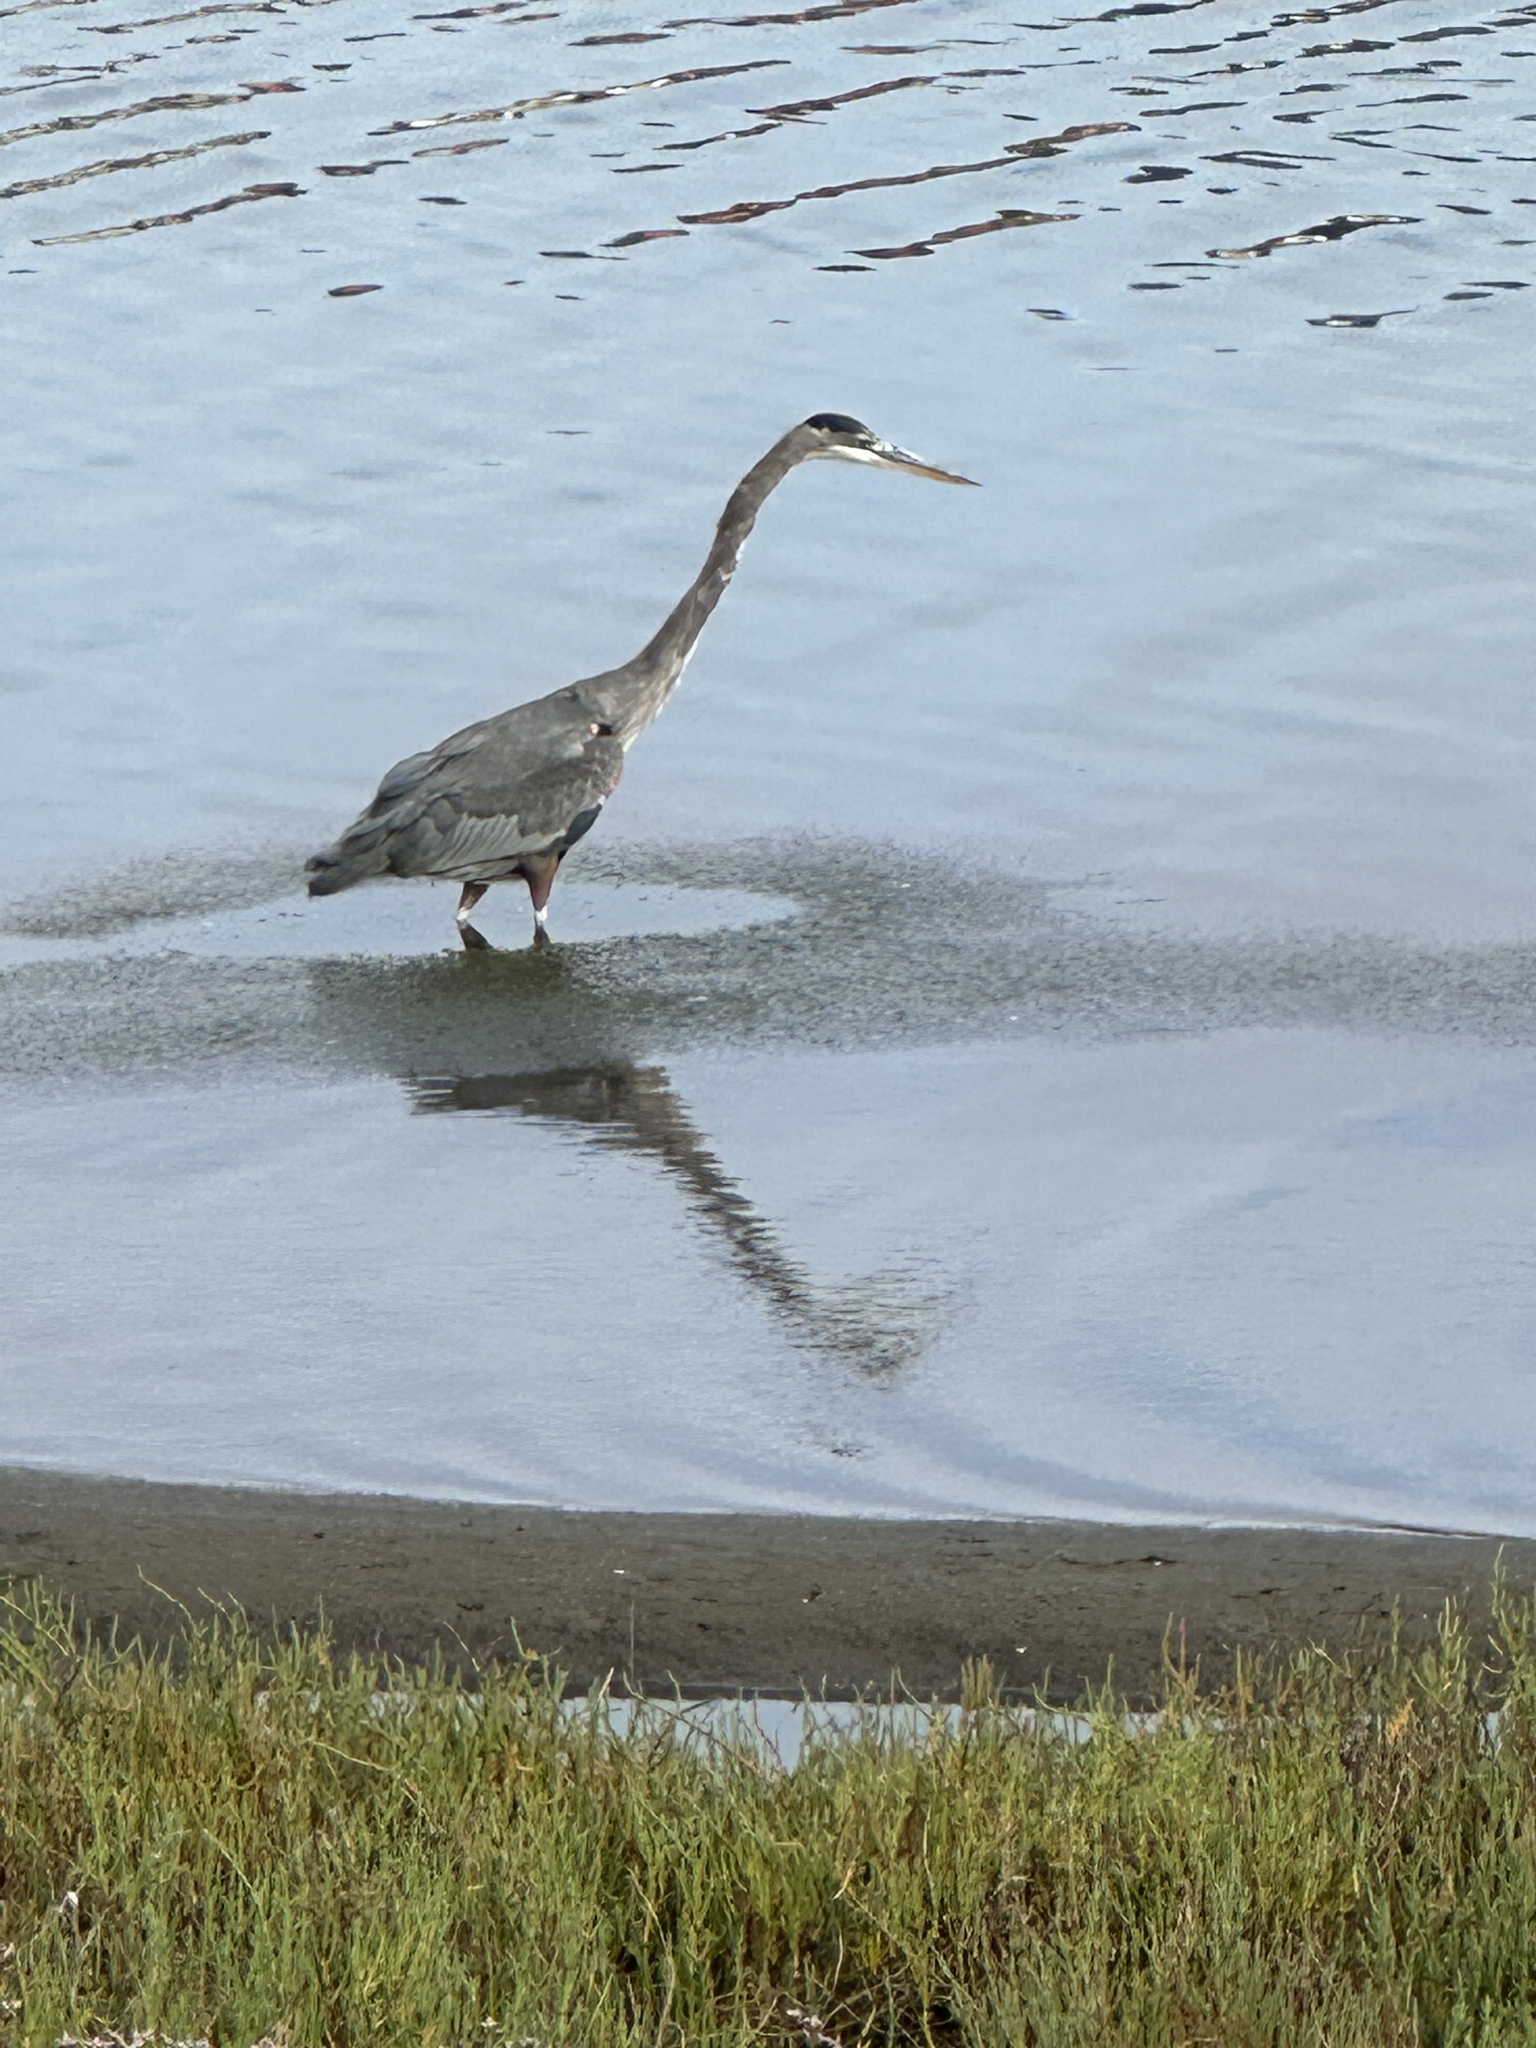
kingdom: Animalia
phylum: Chordata
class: Aves
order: Pelecaniformes
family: Ardeidae
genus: Ardea
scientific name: Ardea herodias
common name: Great blue heron
